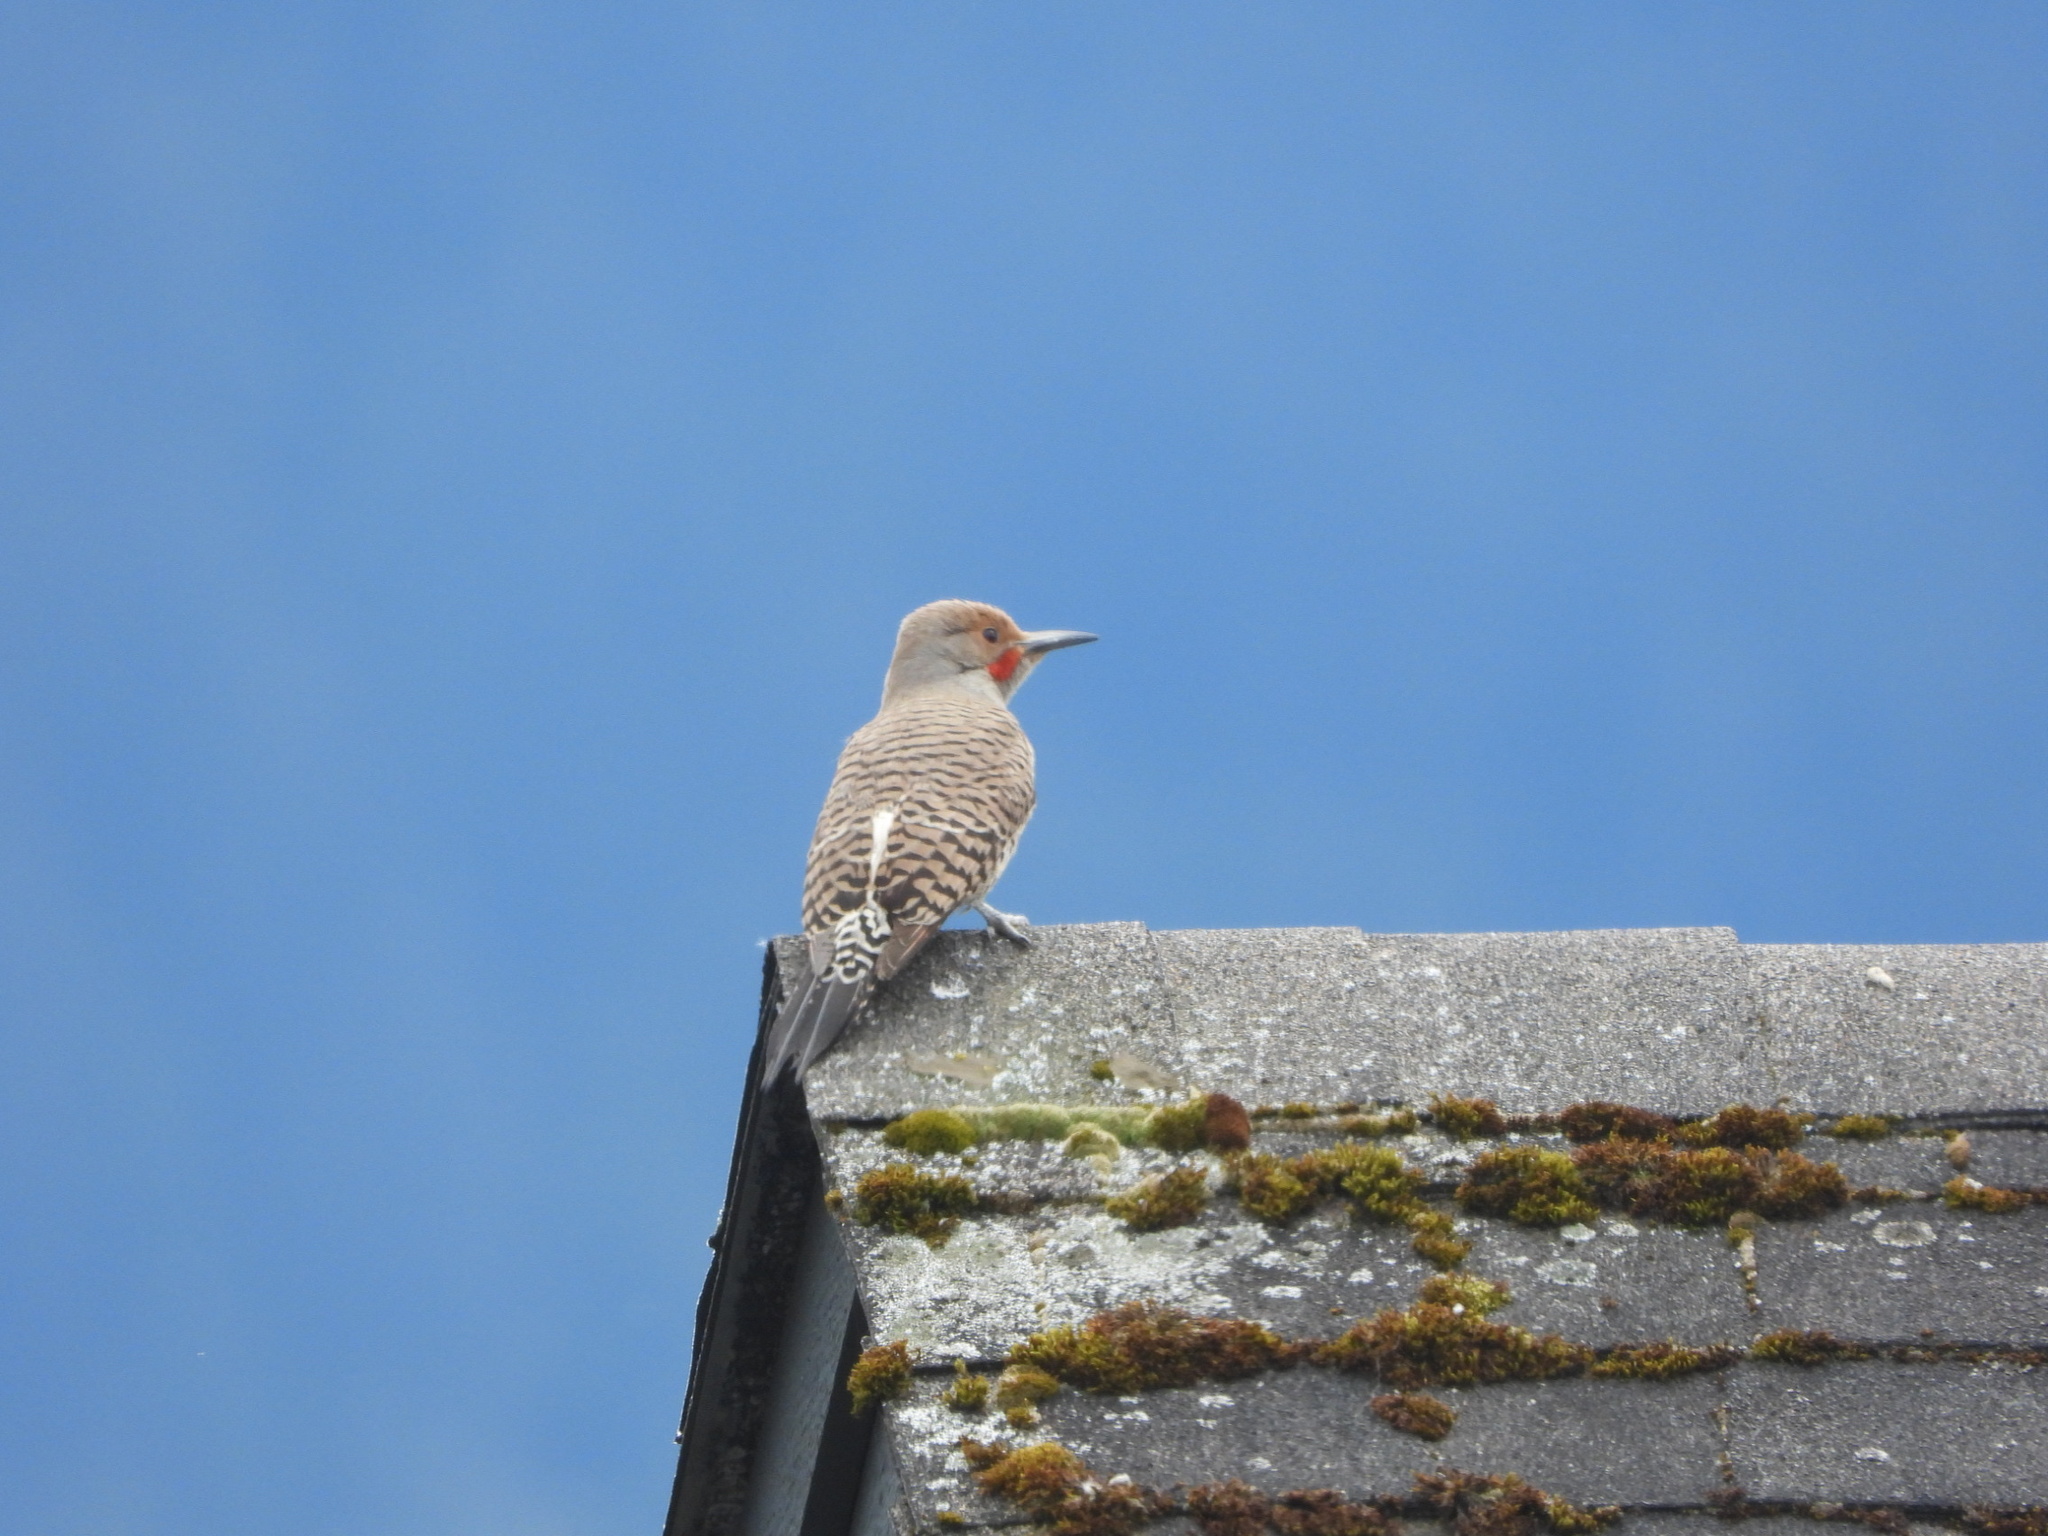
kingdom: Animalia
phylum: Chordata
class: Aves
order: Piciformes
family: Picidae
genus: Colaptes
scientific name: Colaptes auratus
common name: Northern flicker
